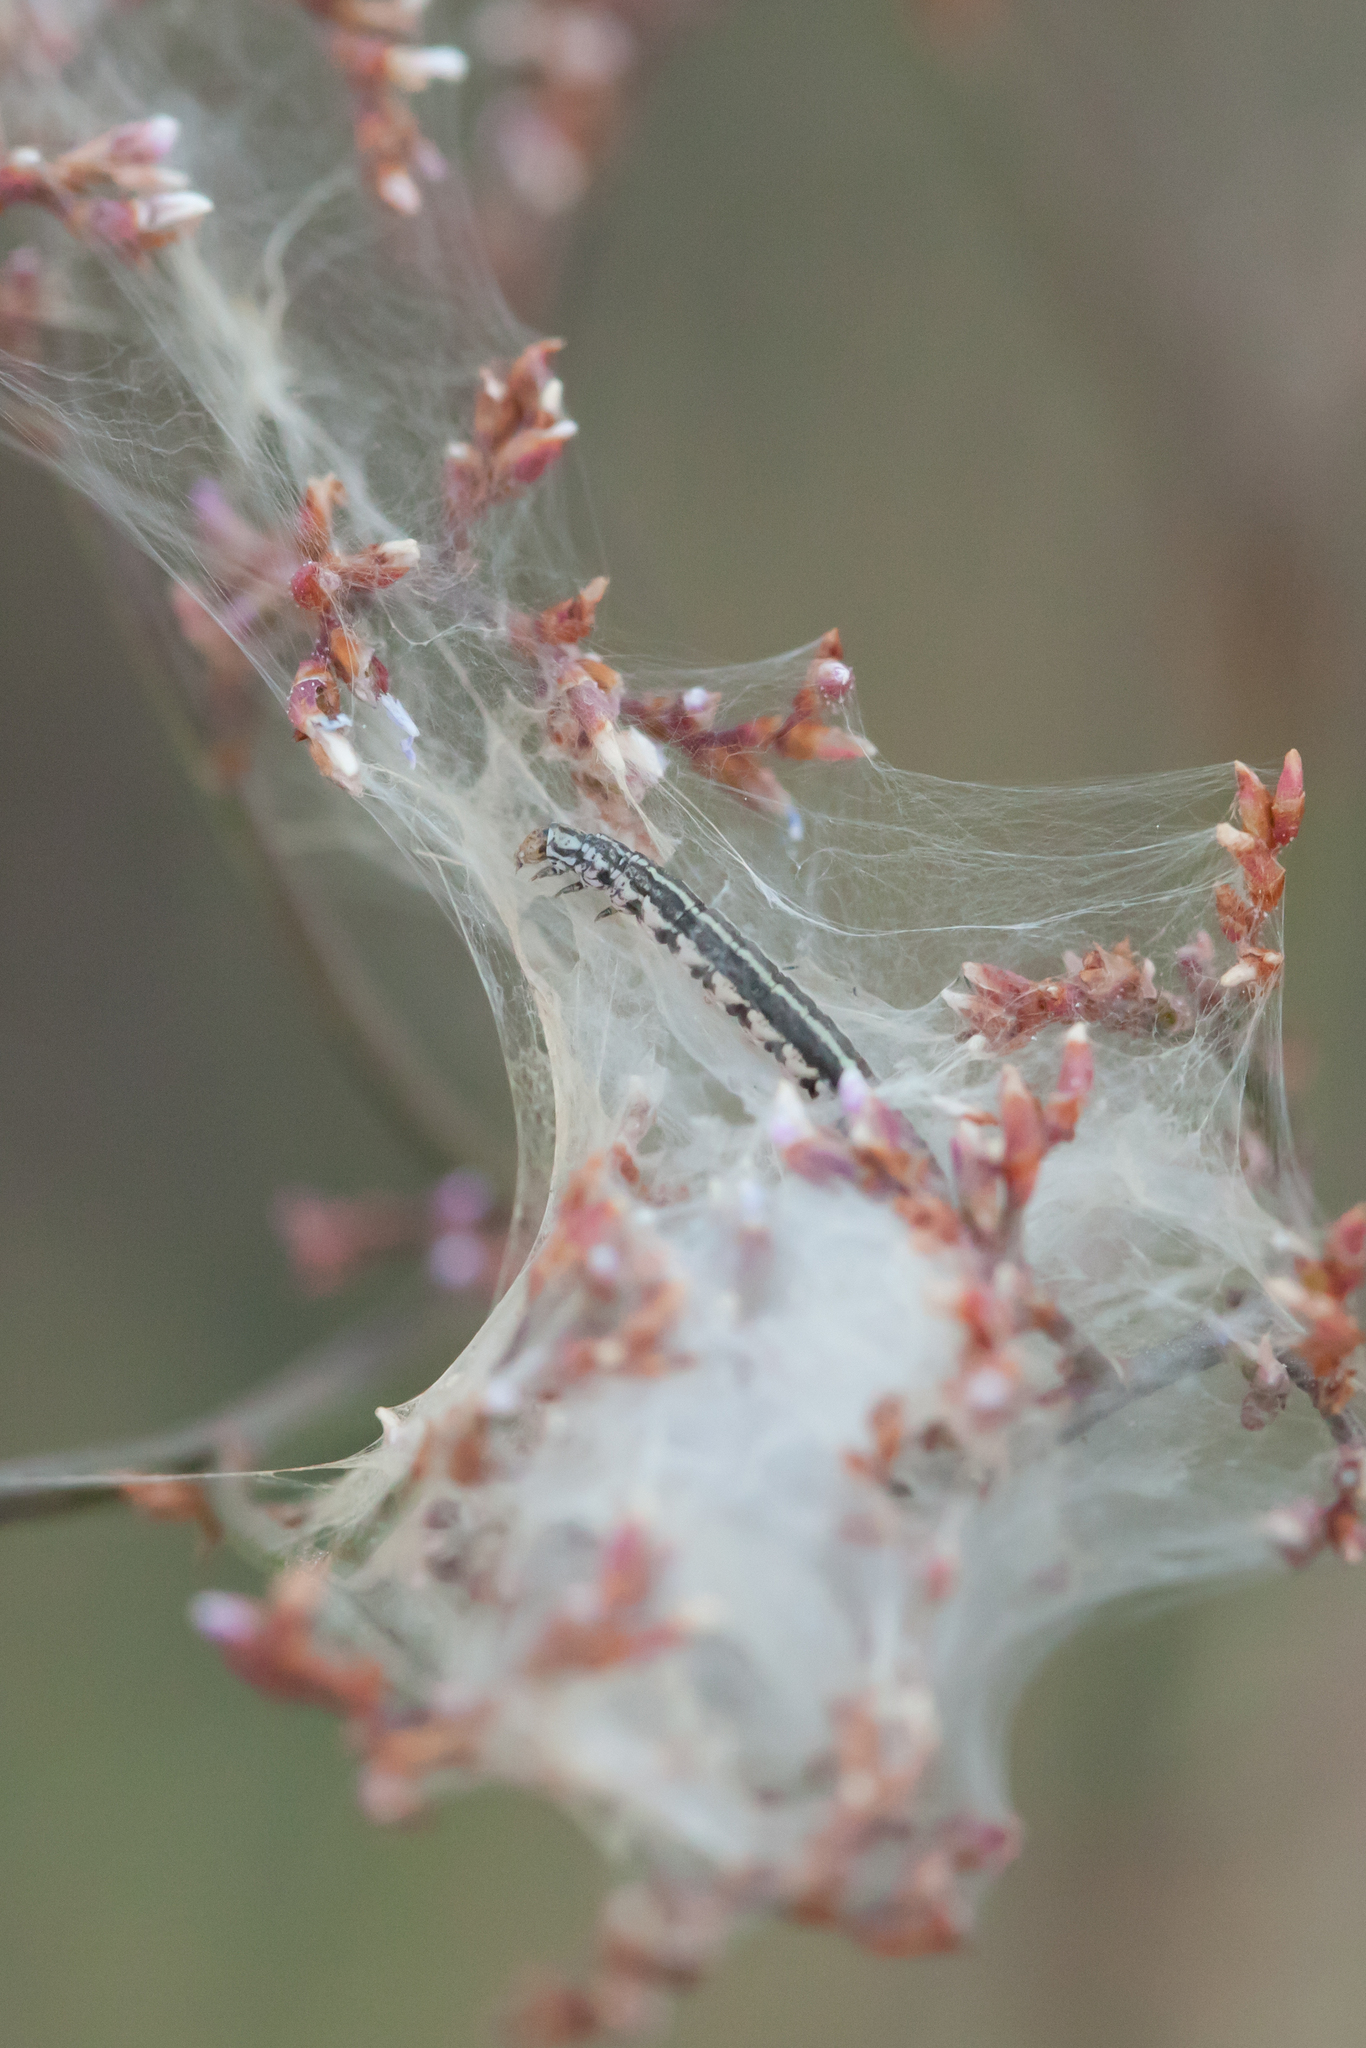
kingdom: Animalia
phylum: Arthropoda
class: Insecta
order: Lepidoptera
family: Galacticidae
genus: Galactica
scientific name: Galactica walsinghami
